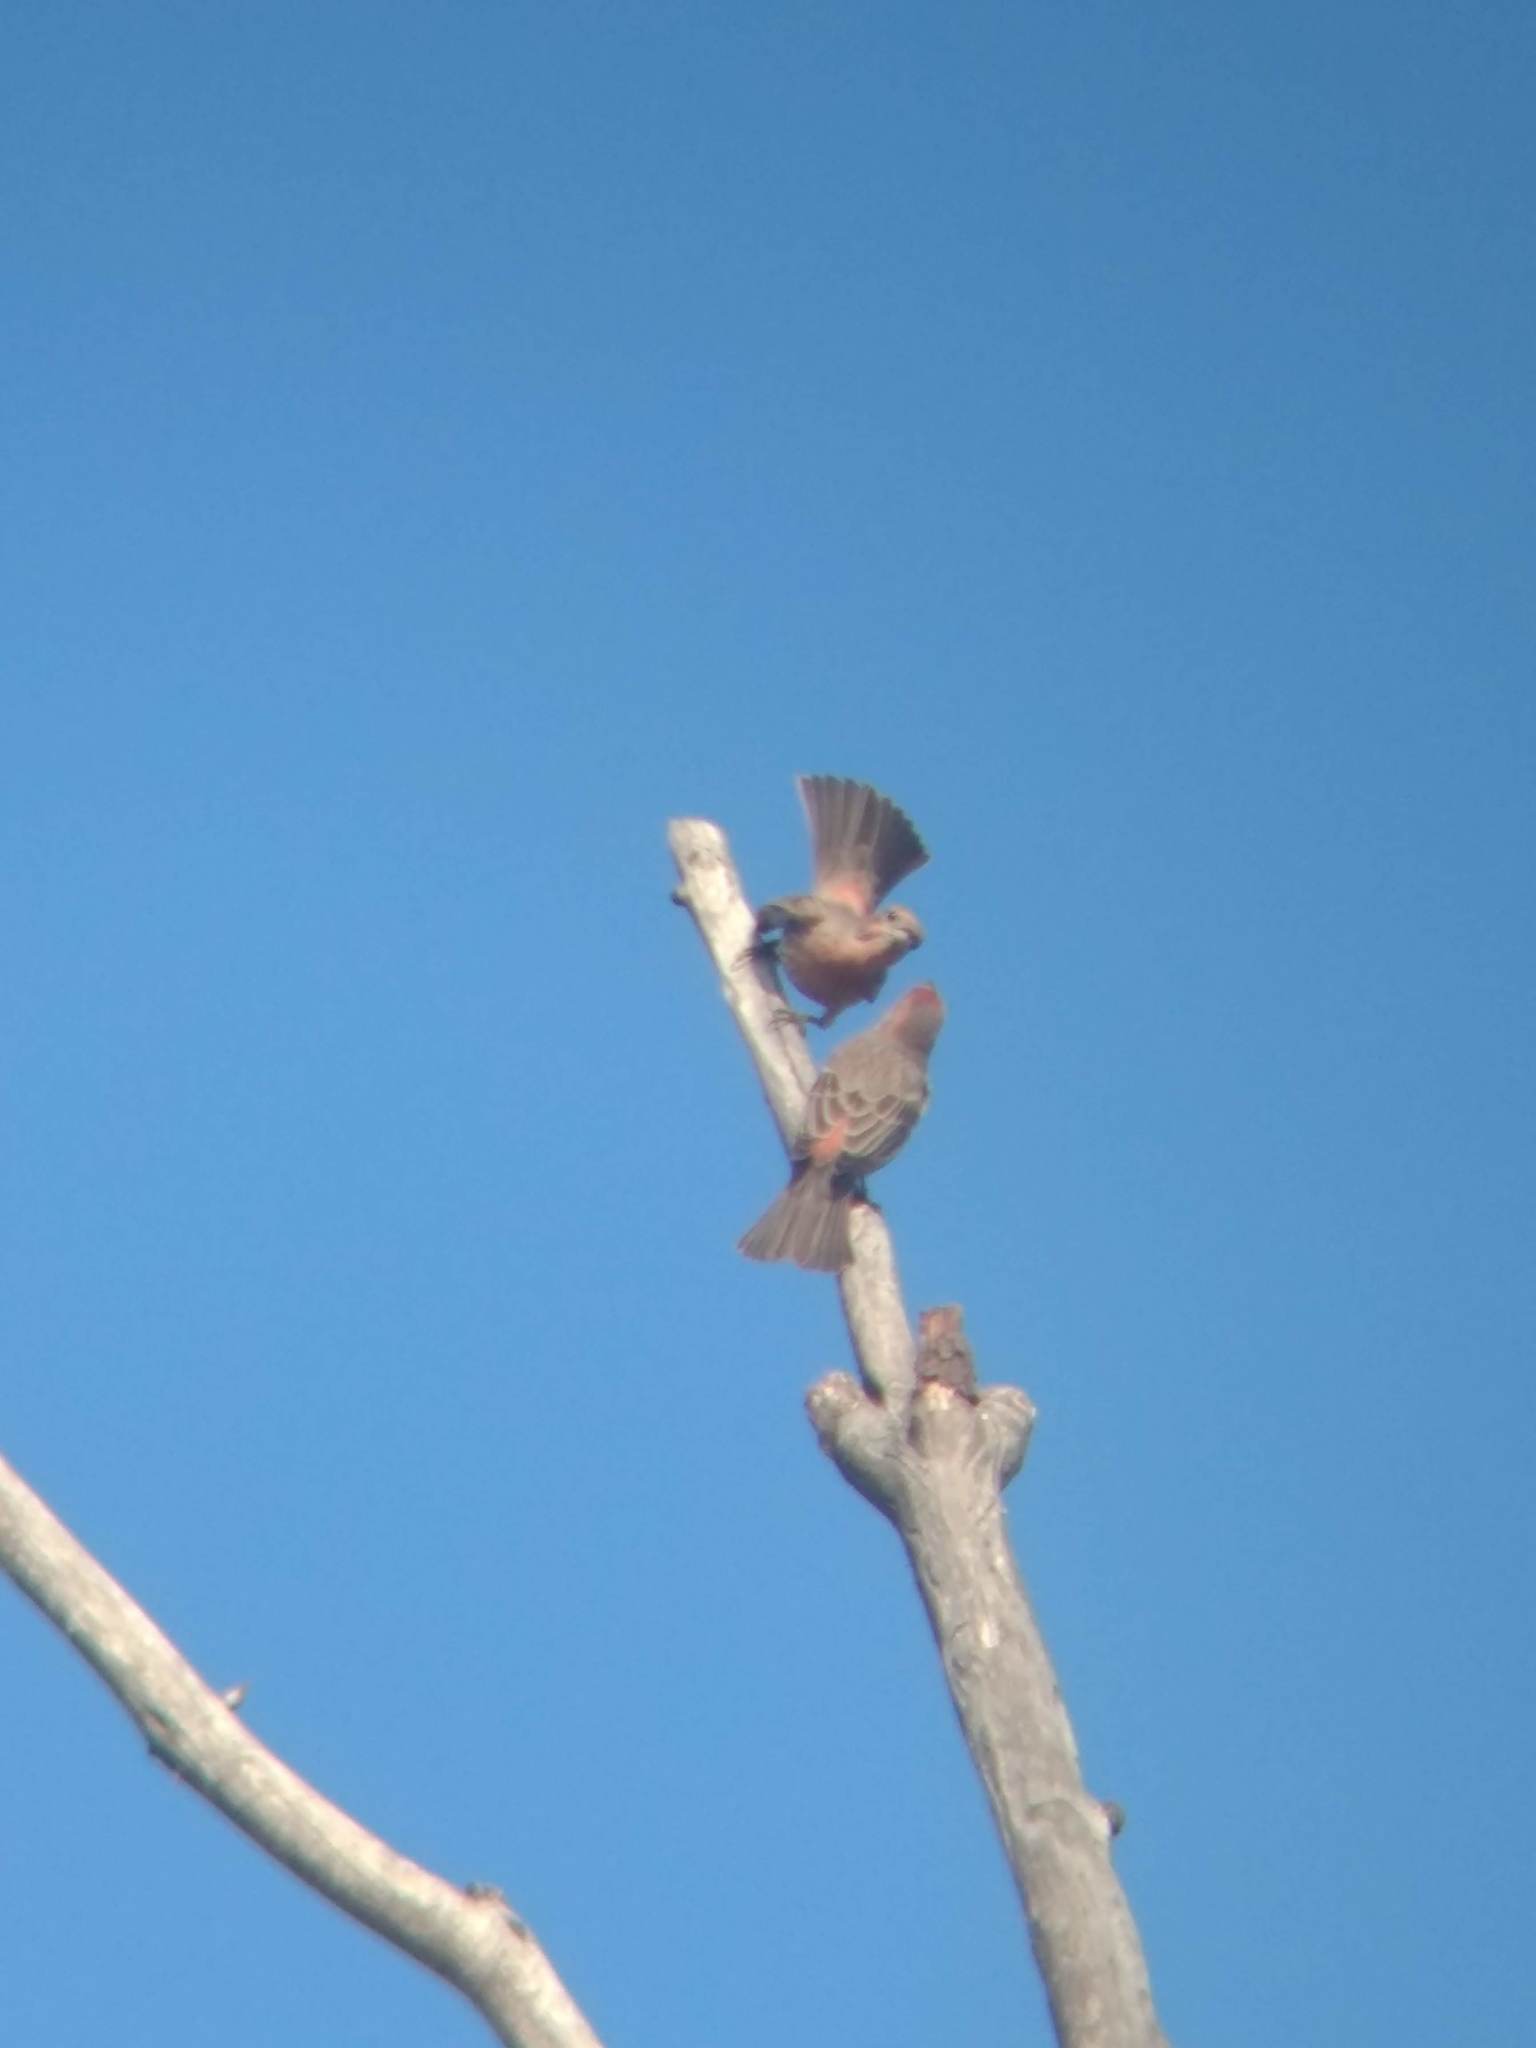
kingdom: Animalia
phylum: Chordata
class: Aves
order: Passeriformes
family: Fringillidae
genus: Haemorhous
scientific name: Haemorhous mexicanus
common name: House finch
